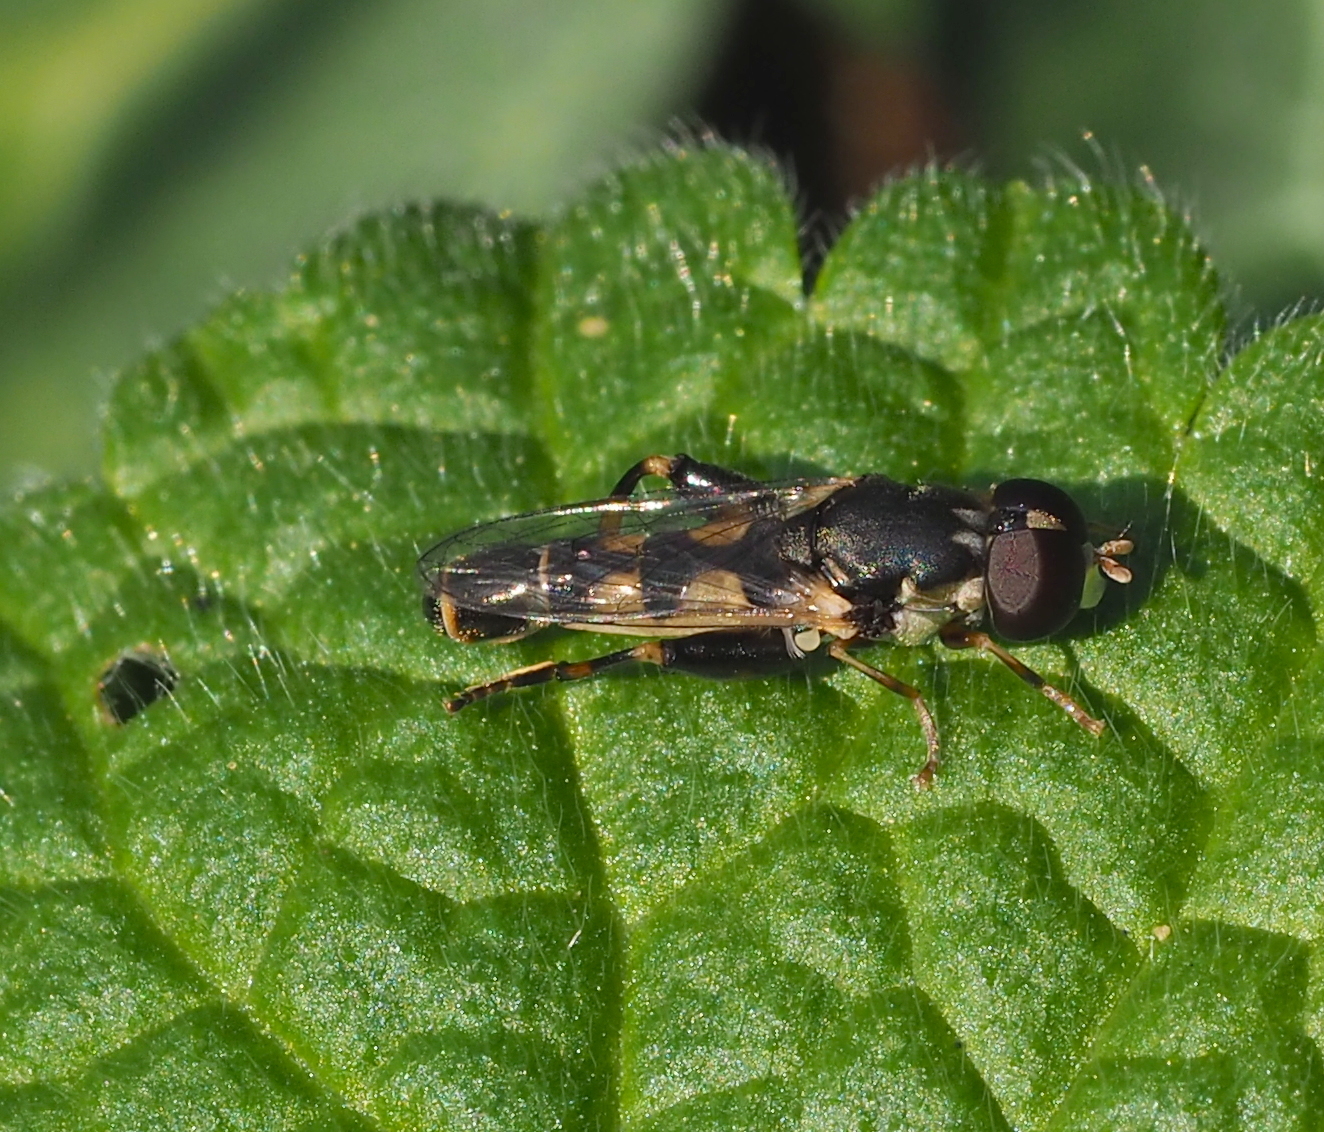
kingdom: Animalia
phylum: Arthropoda
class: Insecta
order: Diptera
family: Syrphidae
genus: Syritta
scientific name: Syritta pipiens
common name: Hover fly
